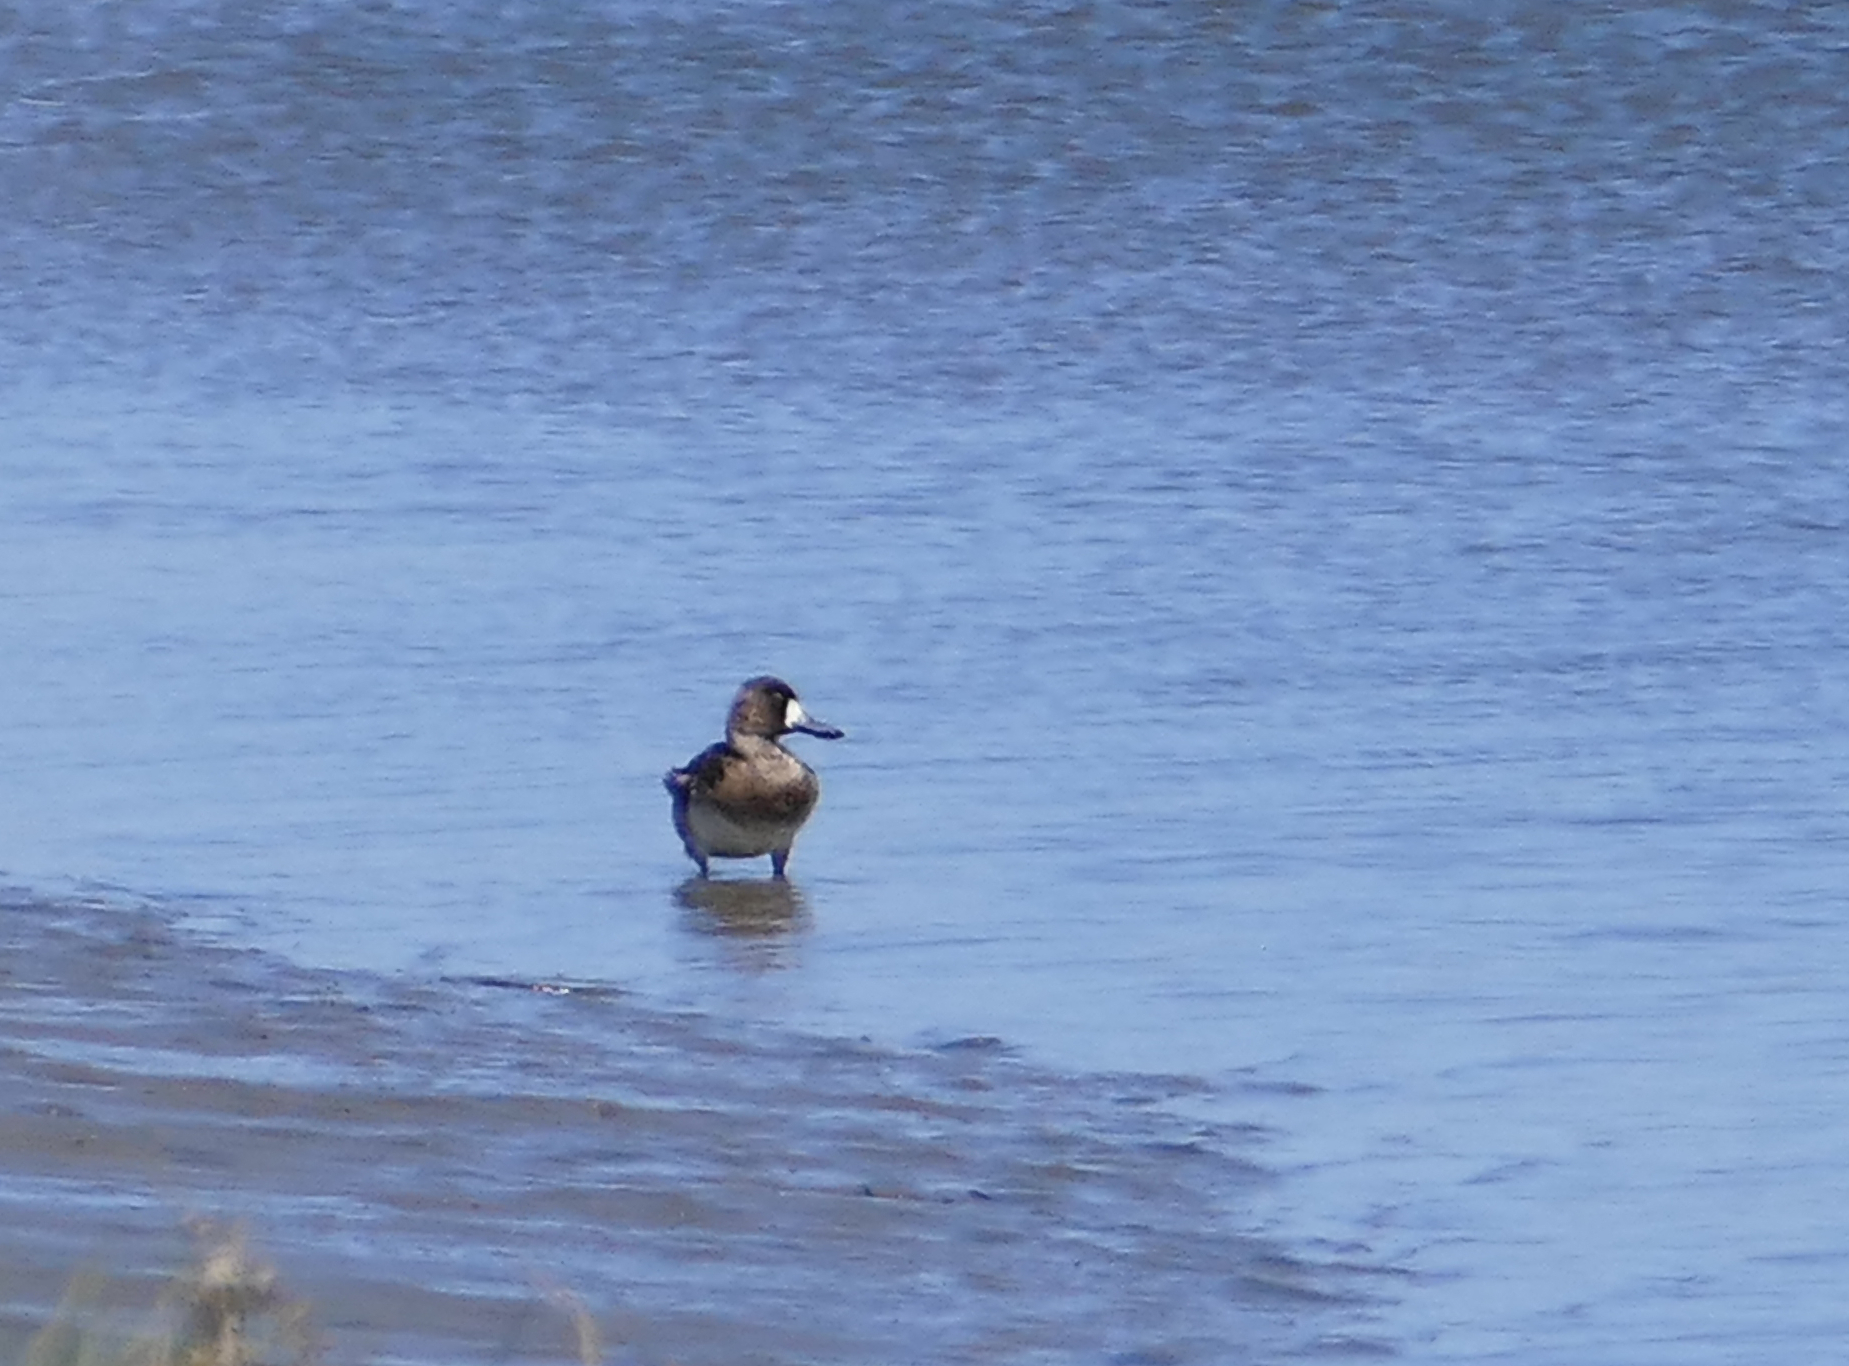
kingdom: Animalia
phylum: Chordata
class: Aves
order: Anseriformes
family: Anatidae
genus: Aythya
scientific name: Aythya affinis
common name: Lesser scaup
